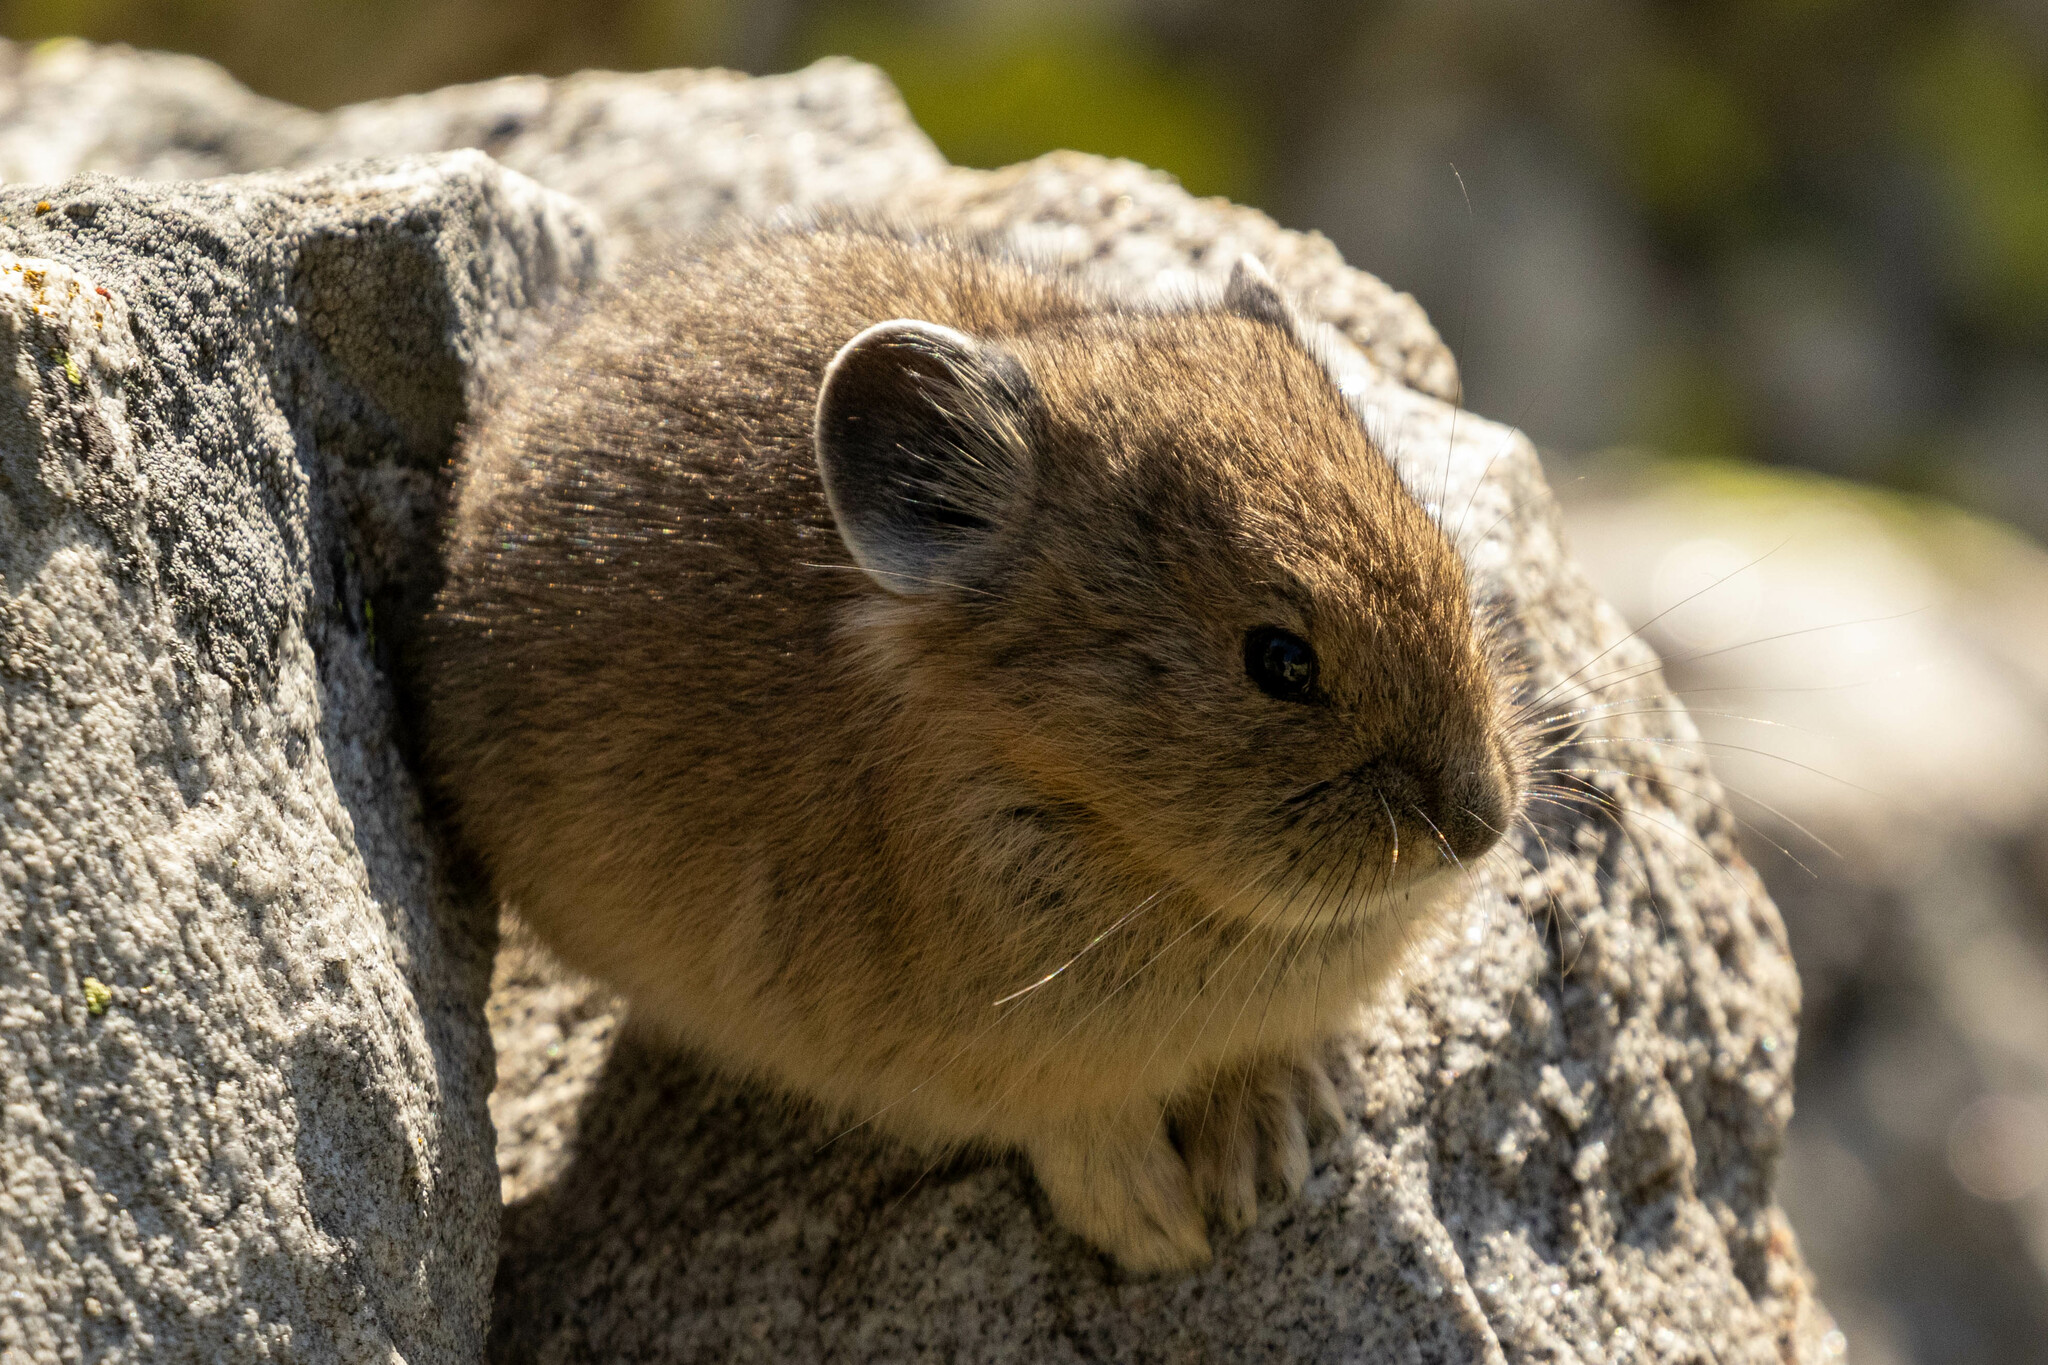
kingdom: Animalia
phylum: Chordata
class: Mammalia
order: Lagomorpha
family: Ochotonidae
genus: Ochotona
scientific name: Ochotona princeps
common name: American pika
